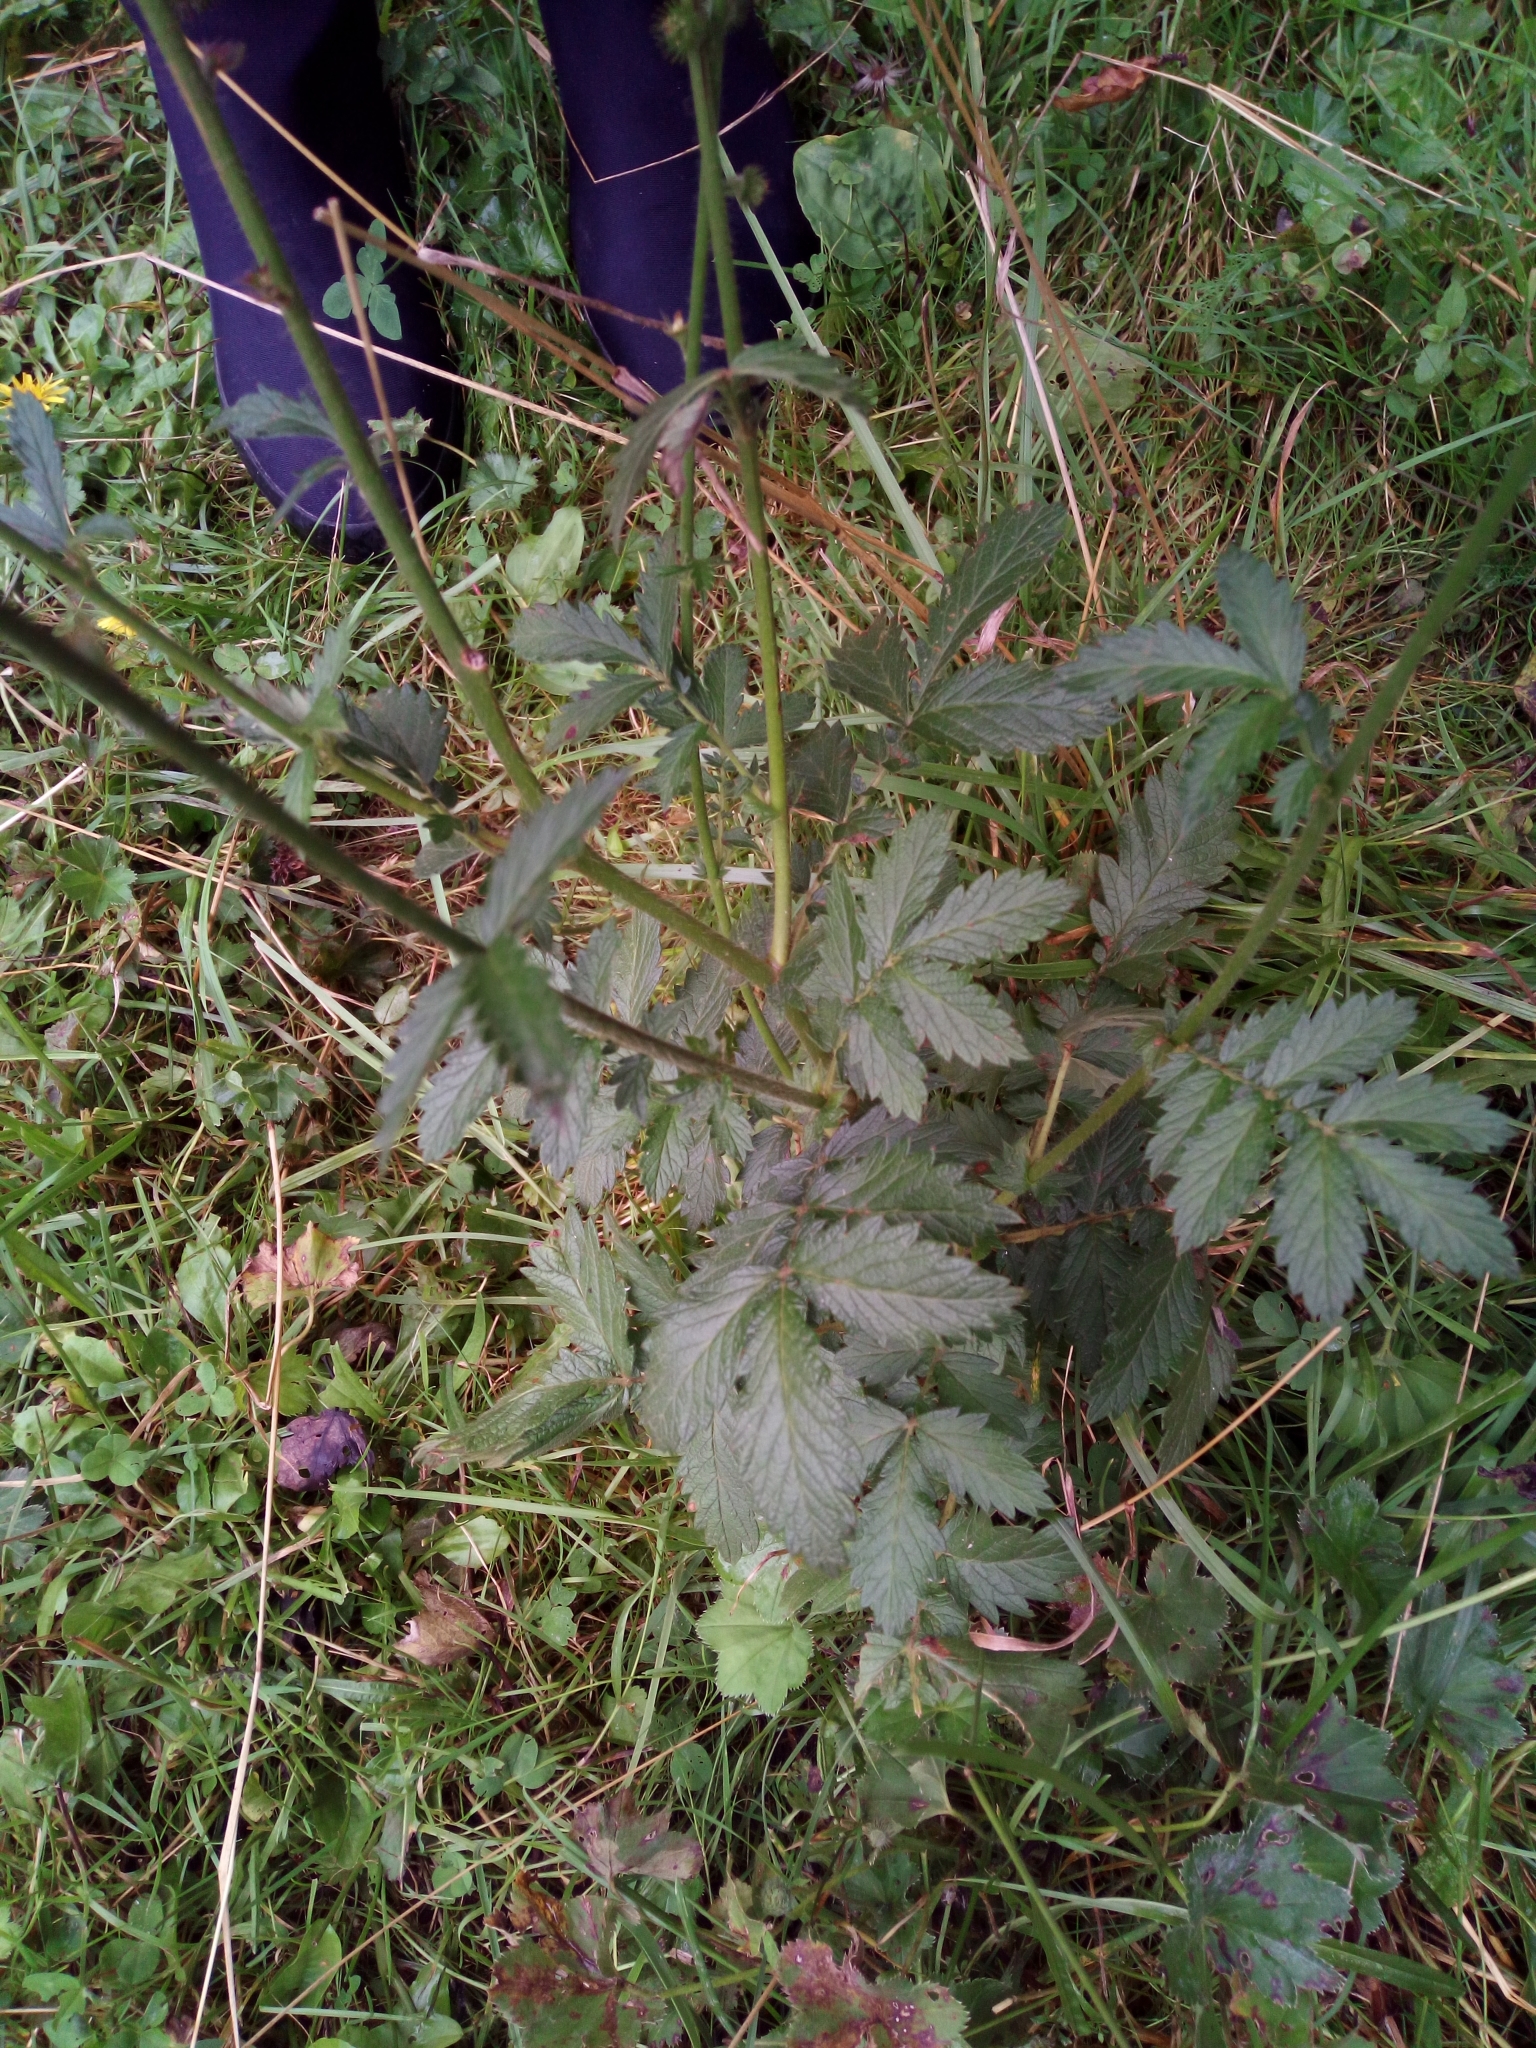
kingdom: Plantae
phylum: Tracheophyta
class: Magnoliopsida
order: Rosales
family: Rosaceae
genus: Agrimonia
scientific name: Agrimonia eupatoria
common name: Agrimony
